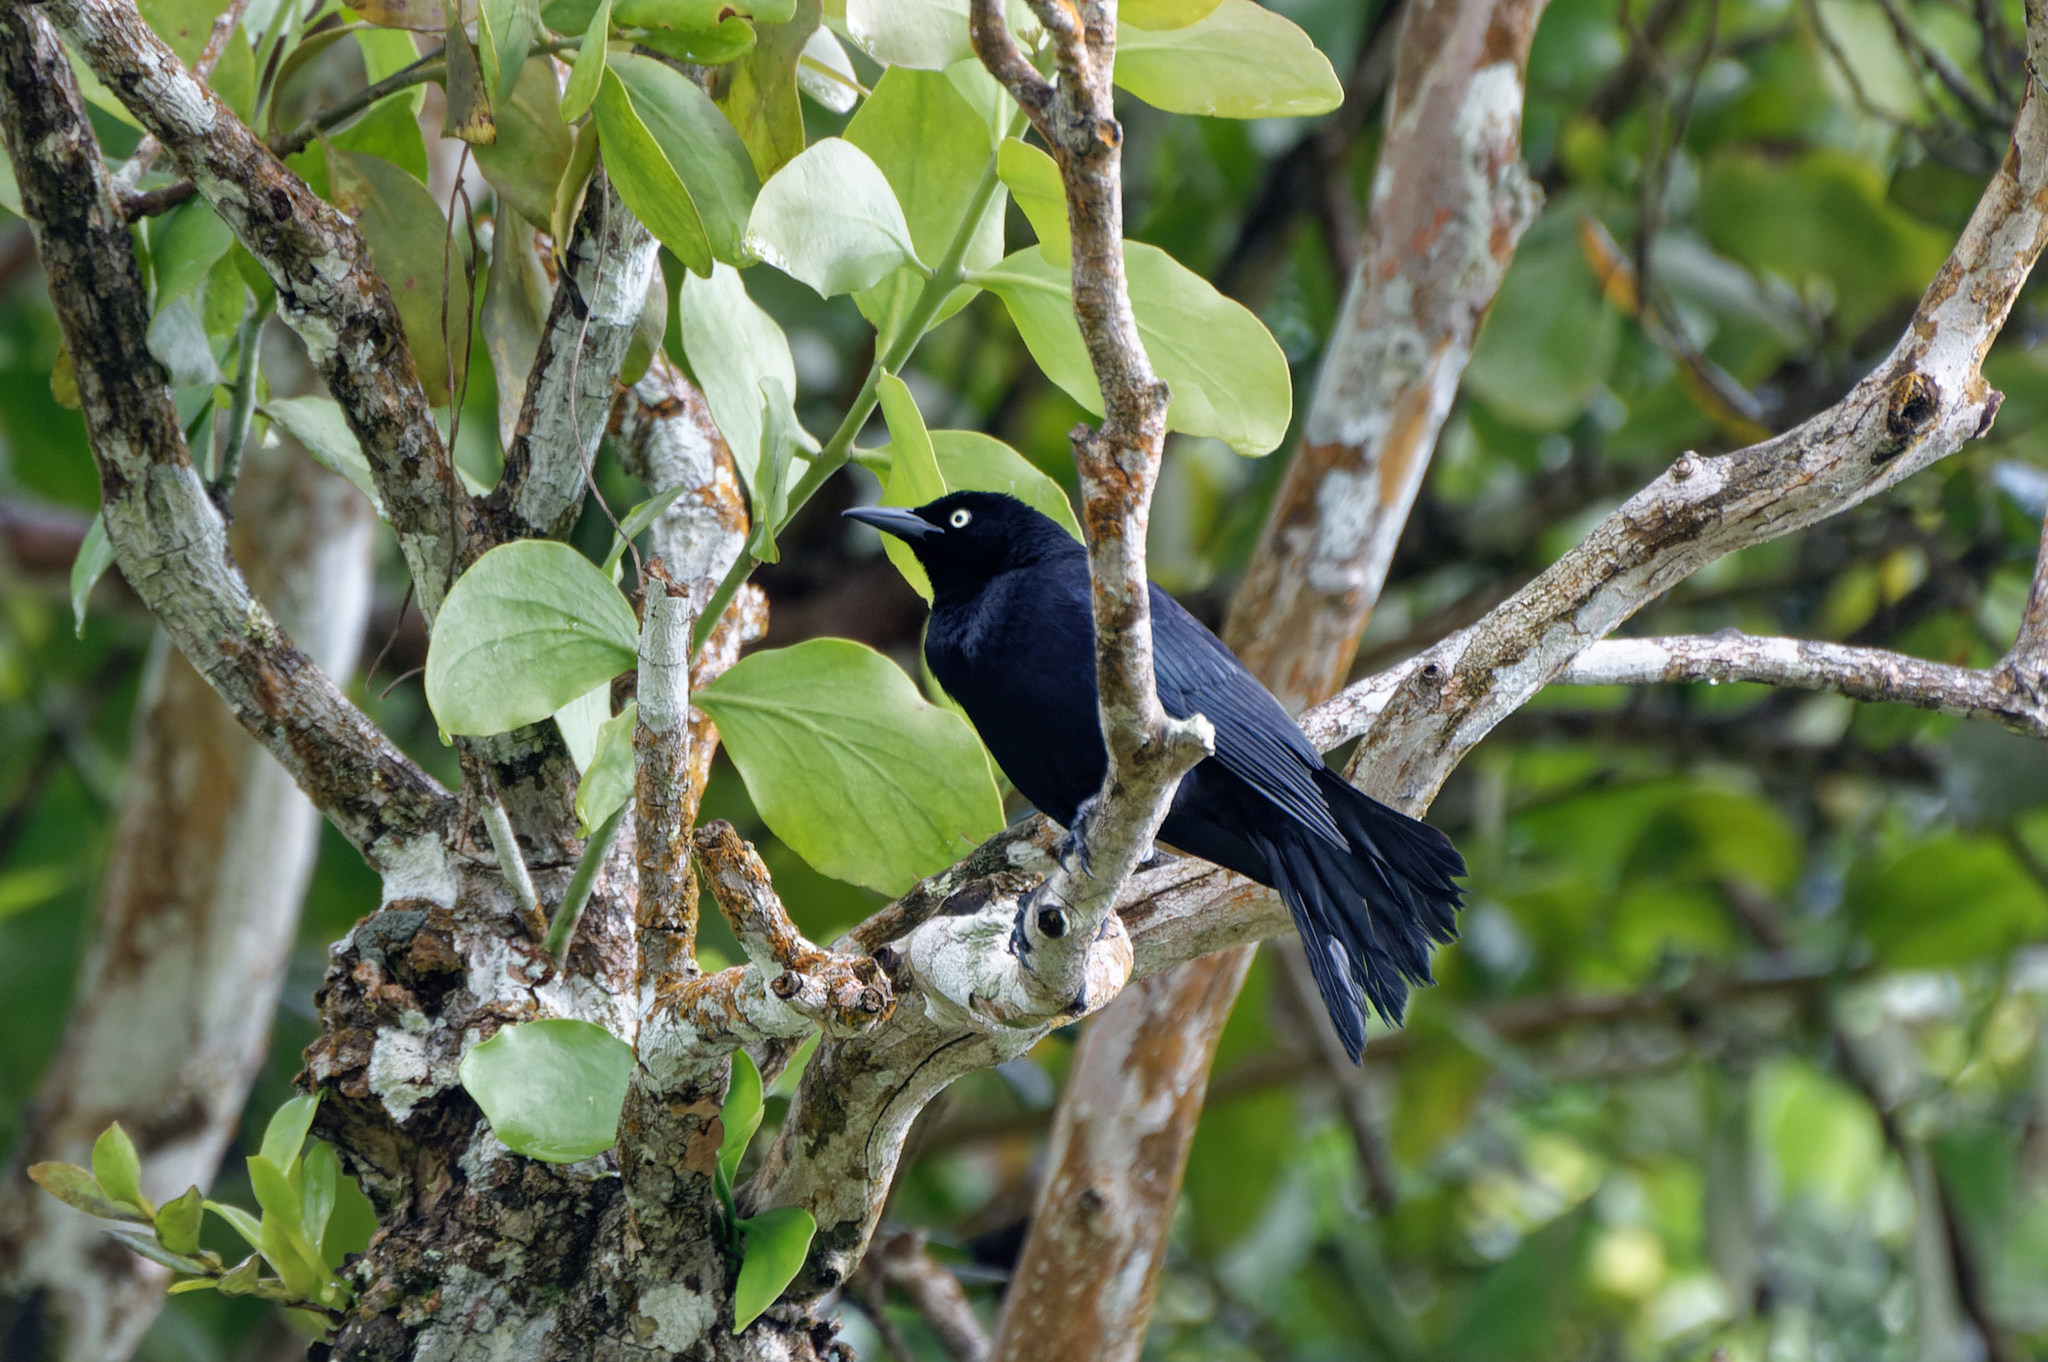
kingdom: Animalia
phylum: Chordata
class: Aves
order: Passeriformes
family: Icteridae
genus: Quiscalus
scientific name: Quiscalus lugubris
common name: Carib grackle
